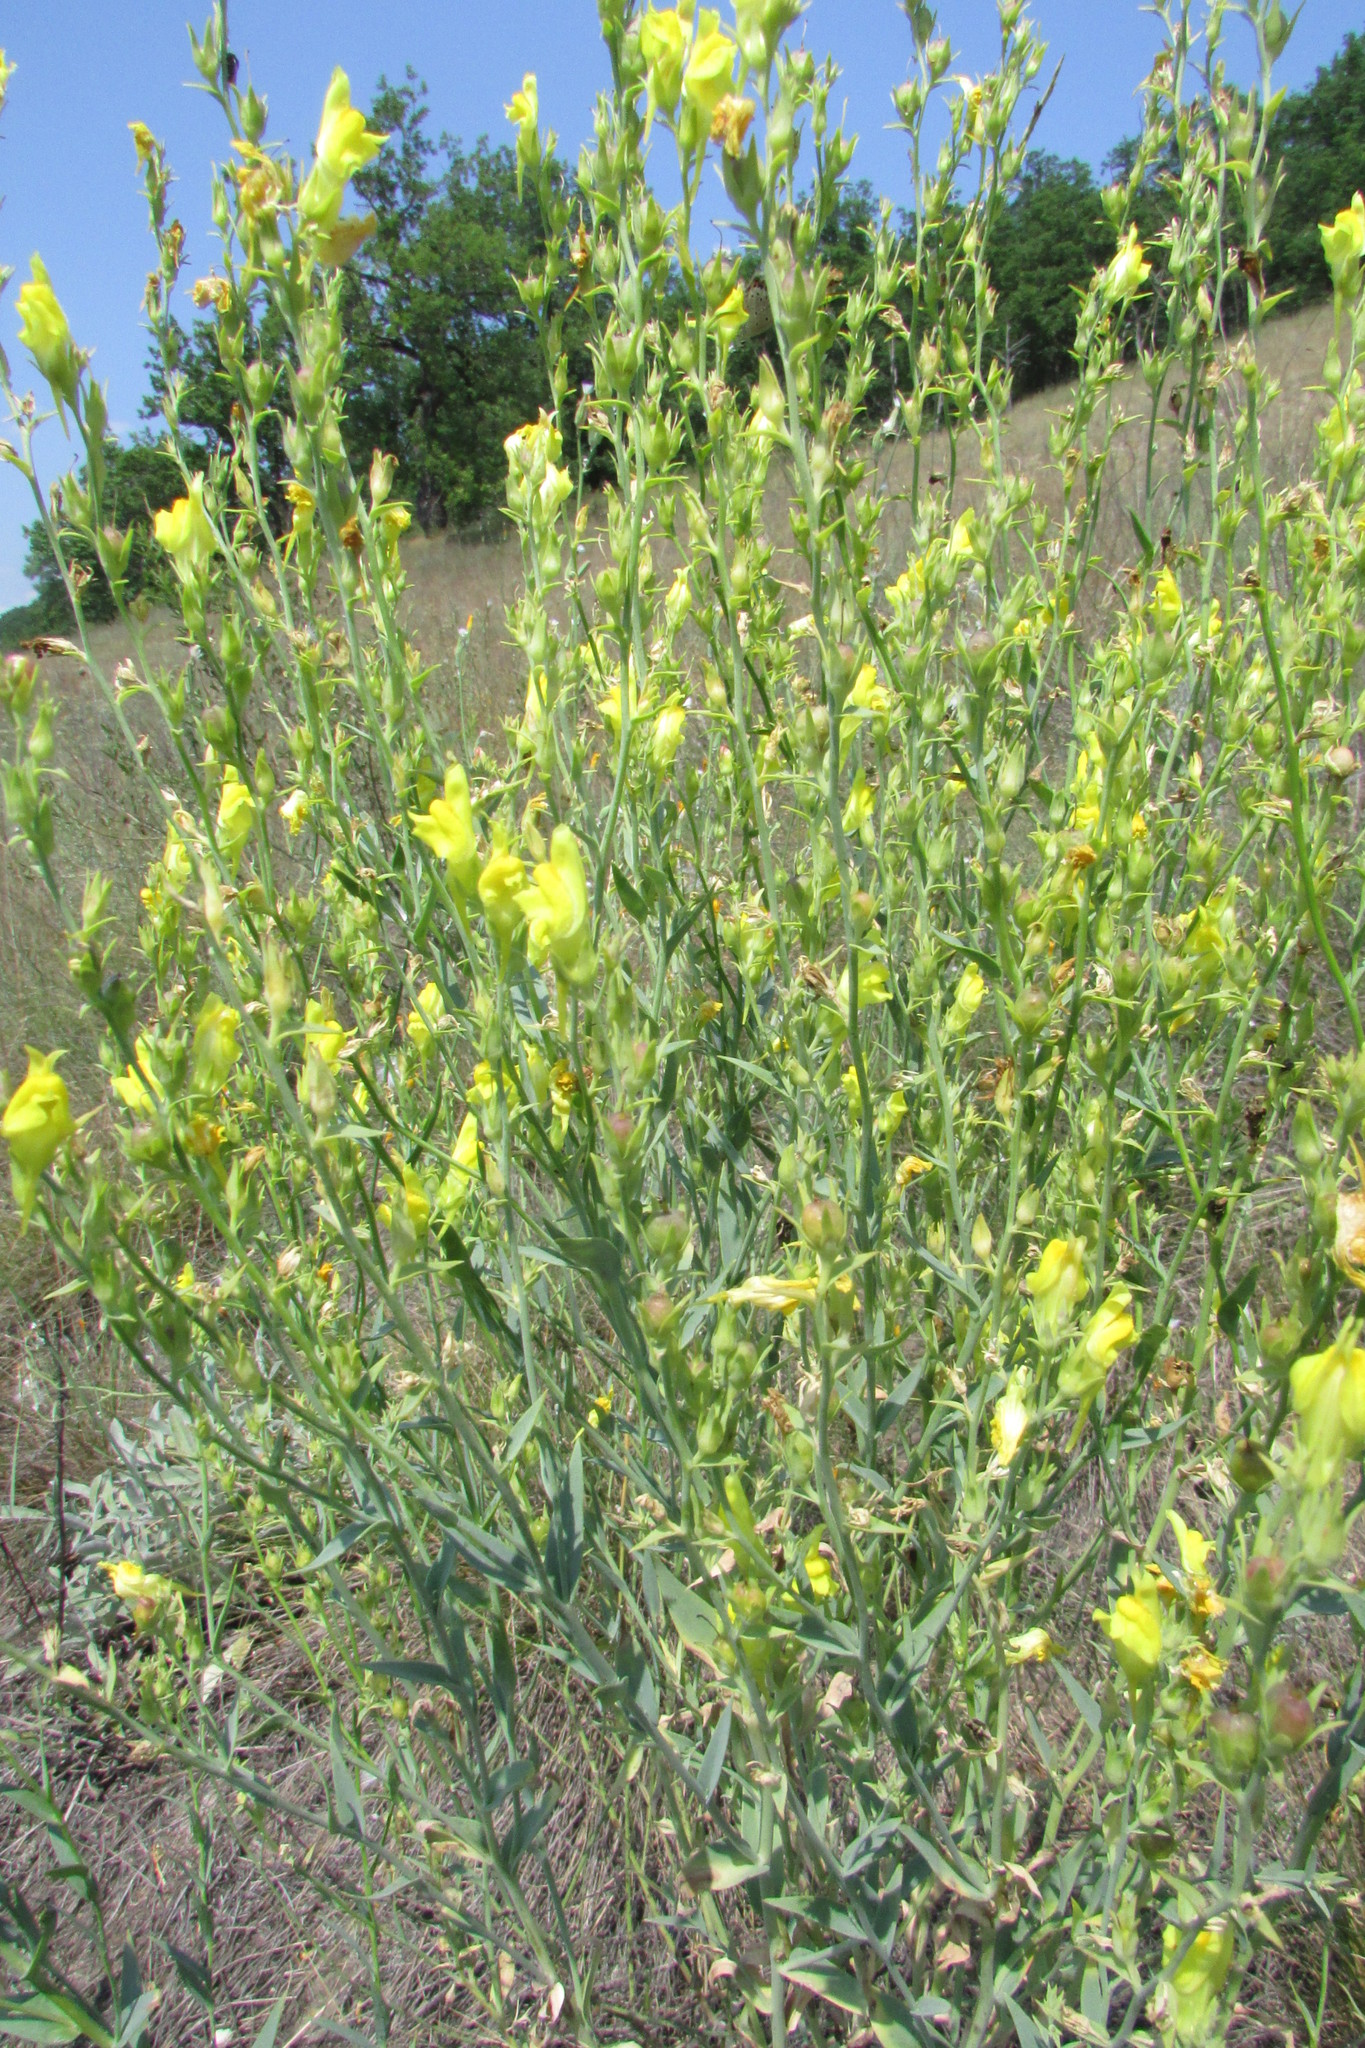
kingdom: Plantae
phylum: Tracheophyta
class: Magnoliopsida
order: Lamiales
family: Plantaginaceae
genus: Linaria
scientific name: Linaria genistifolia
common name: Broomleaf toadflax
